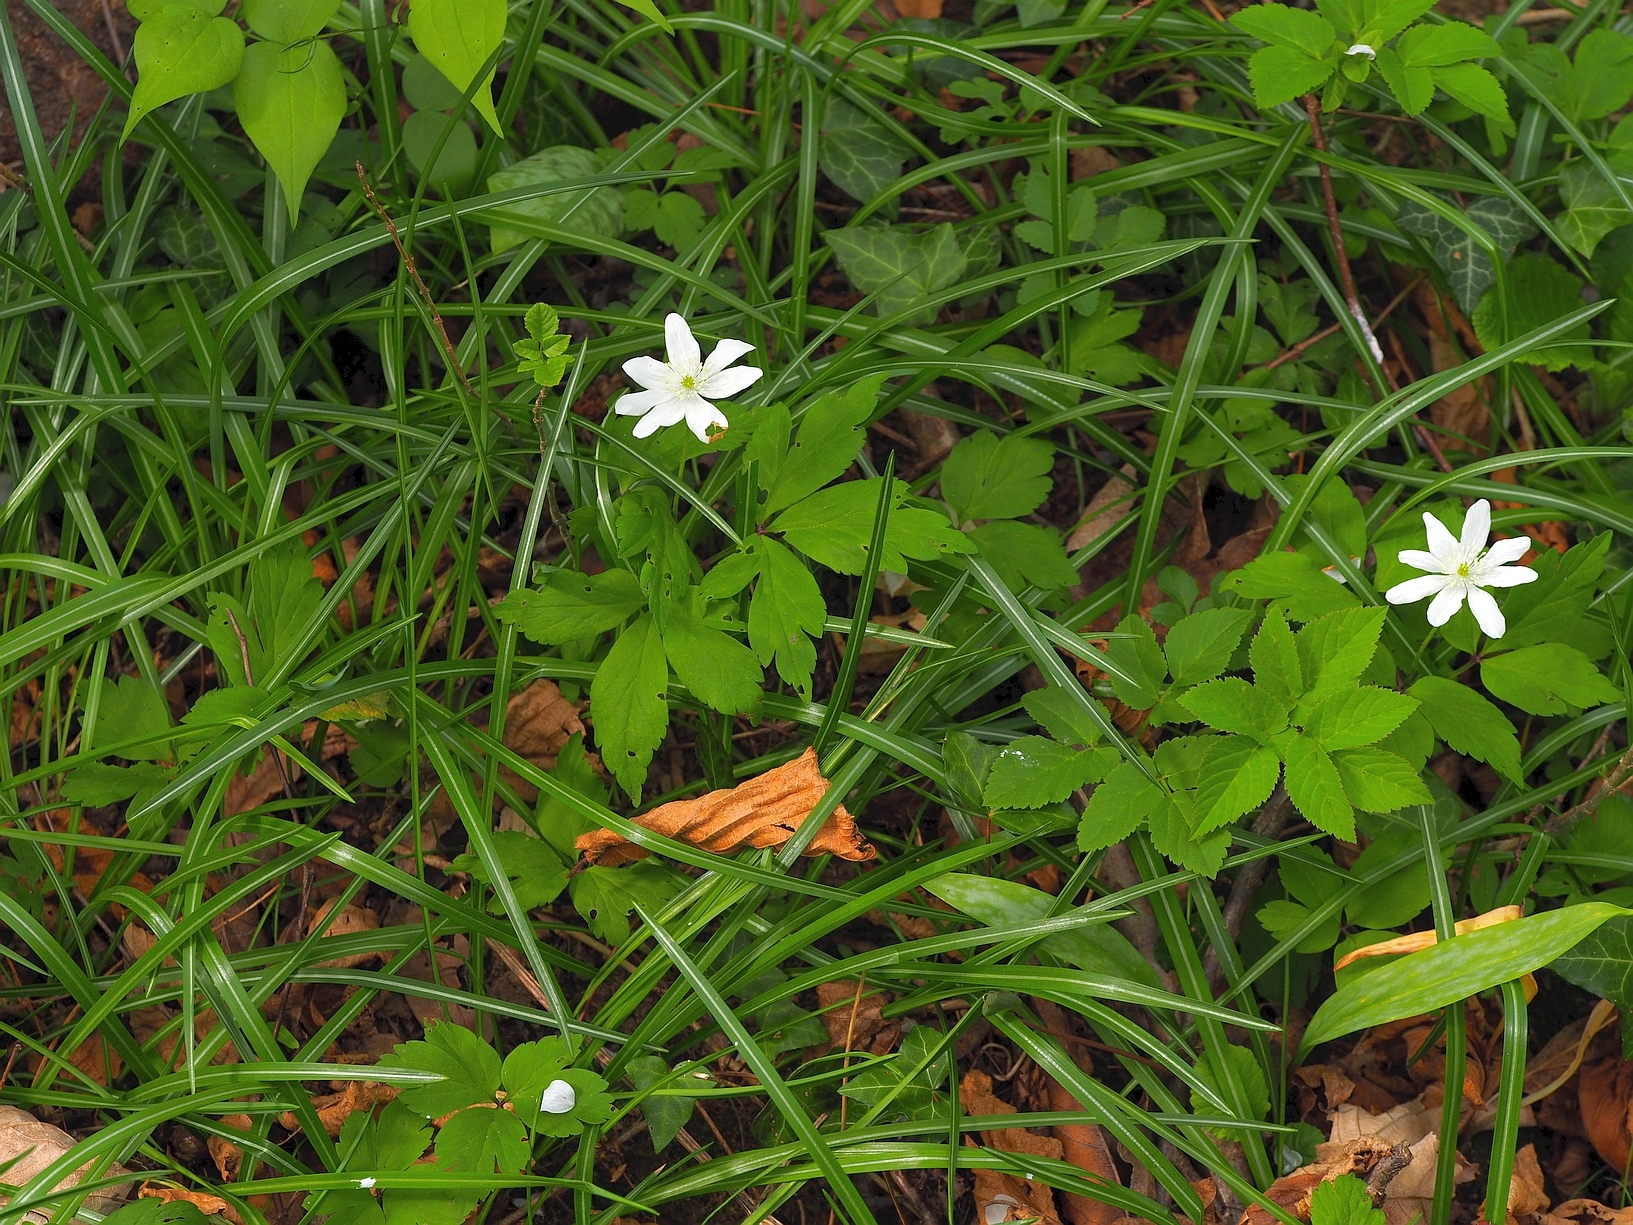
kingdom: Plantae
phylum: Tracheophyta
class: Magnoliopsida
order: Ranunculales
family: Ranunculaceae
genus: Anemone
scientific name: Anemone pittonii
